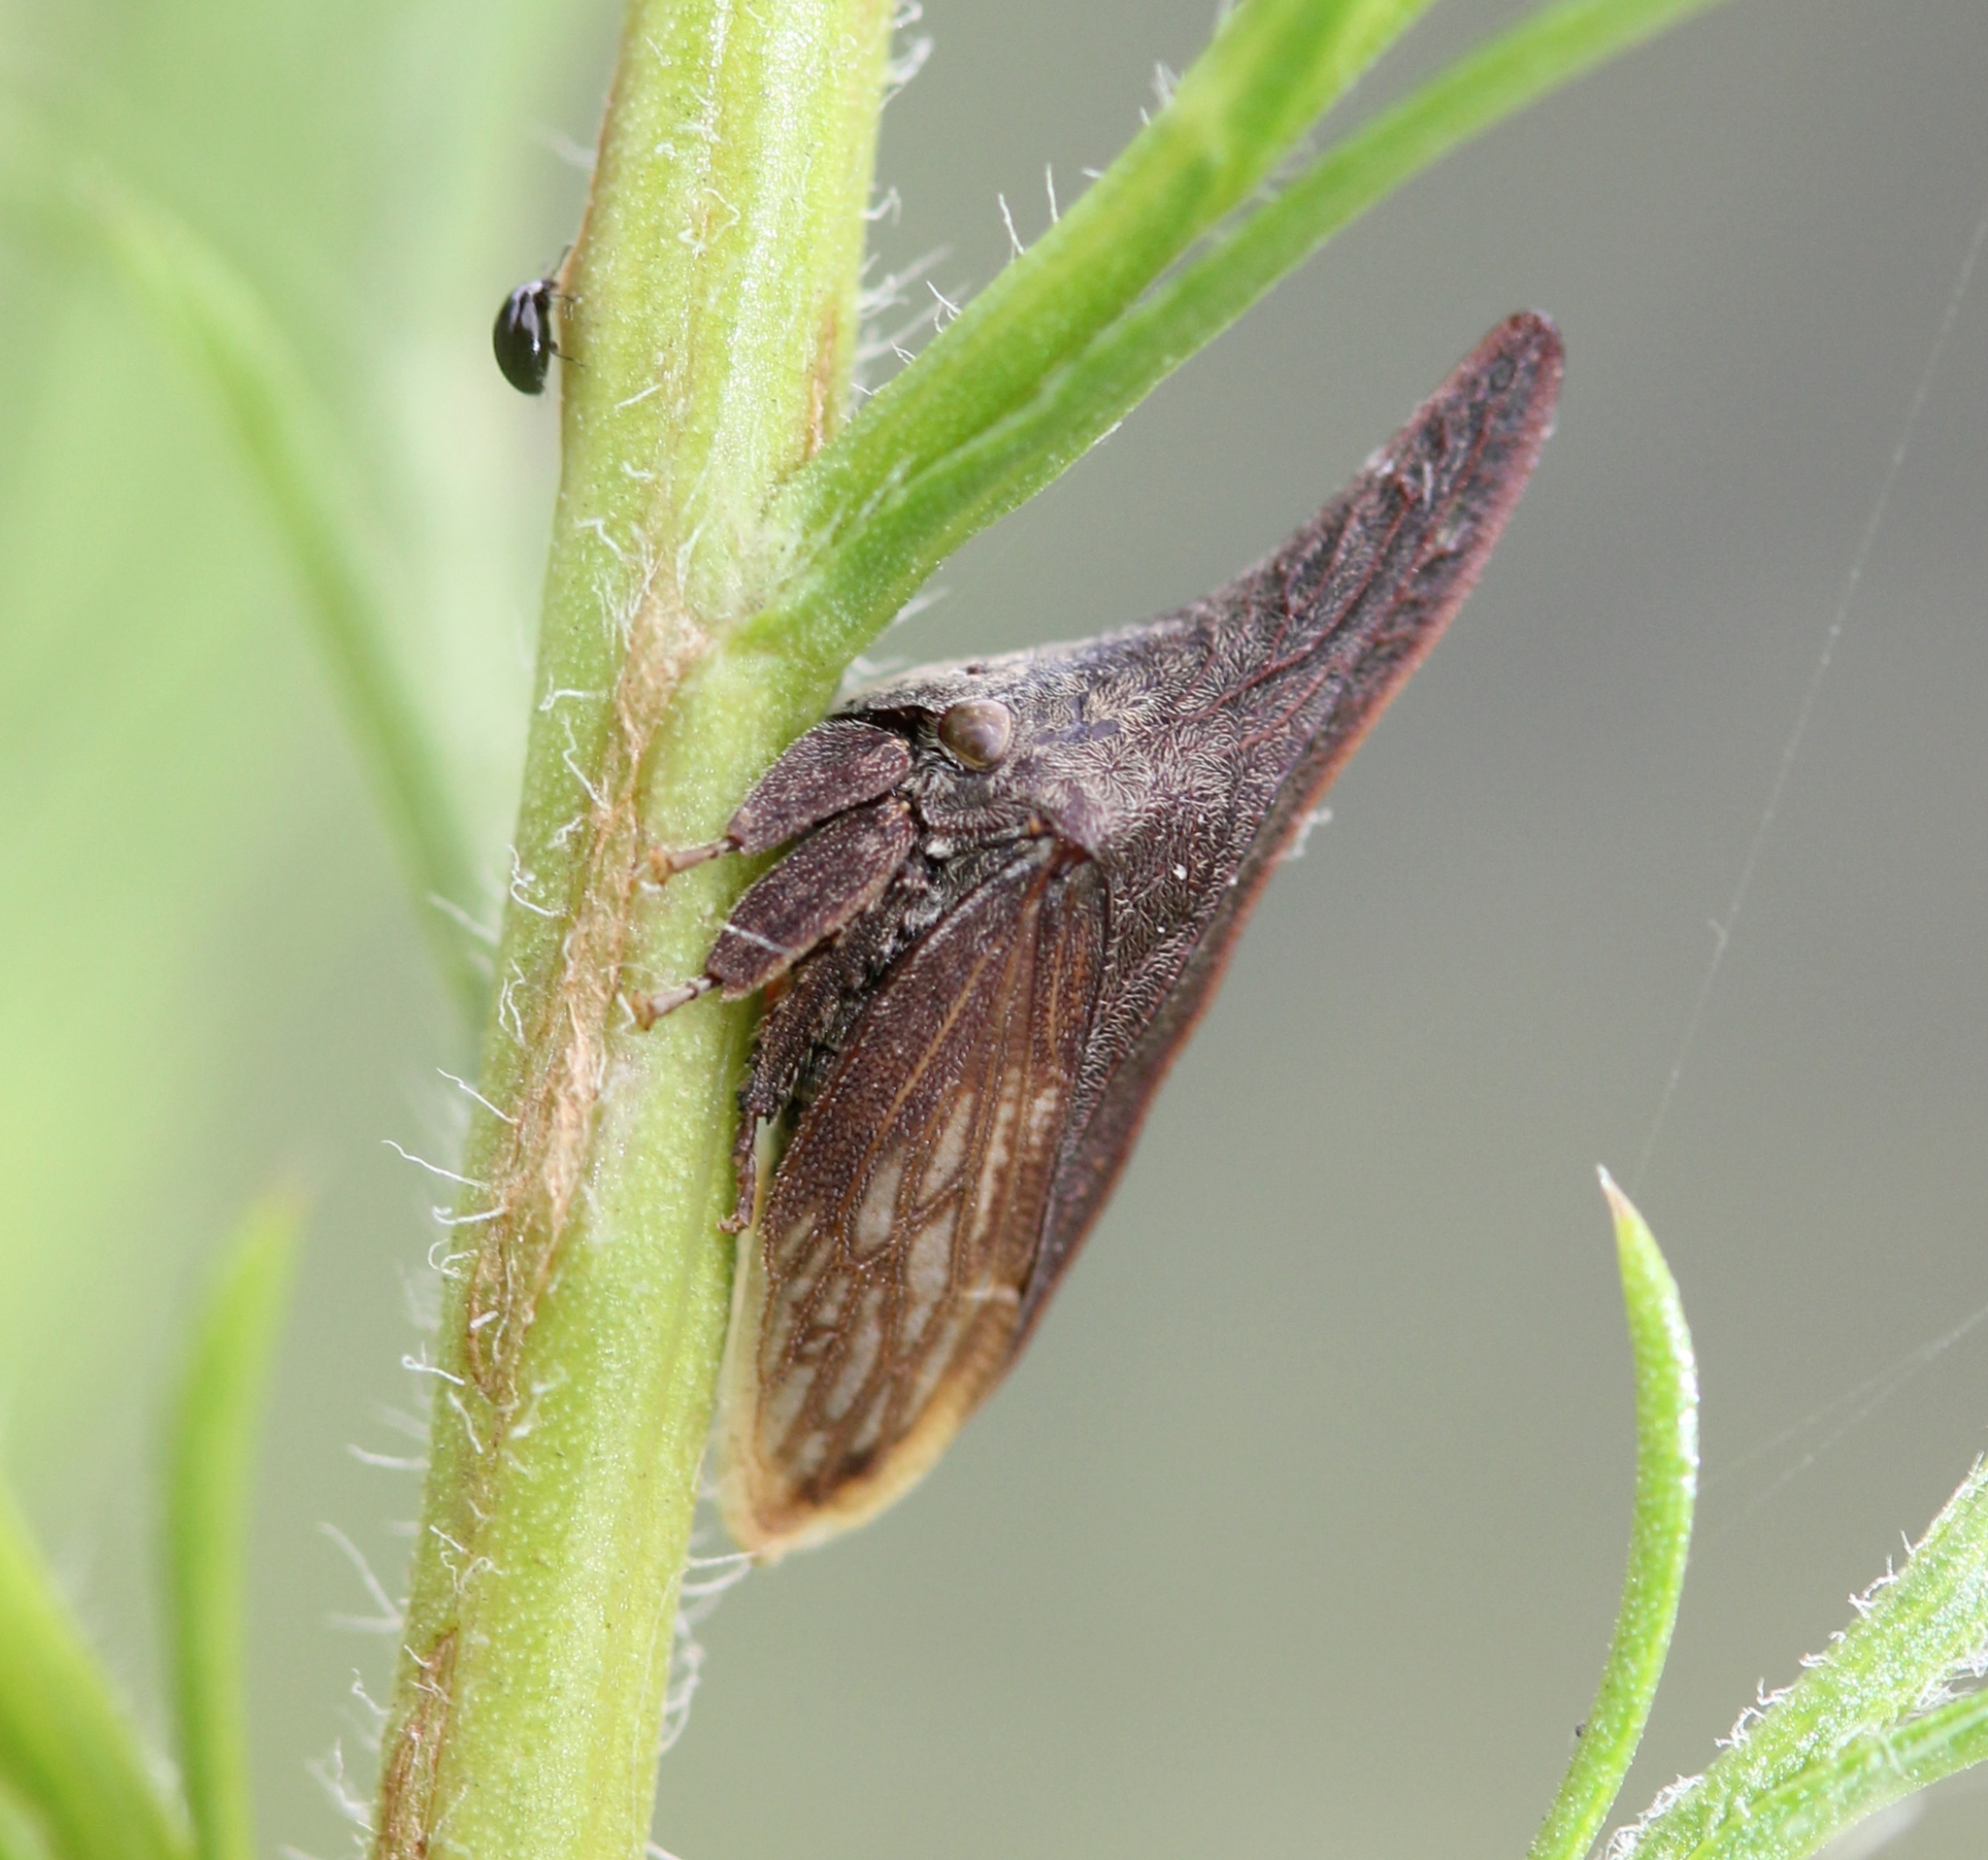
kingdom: Animalia
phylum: Arthropoda
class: Insecta
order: Hemiptera
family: Membracidae
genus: Enchenopa
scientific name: Enchenopa latipes
